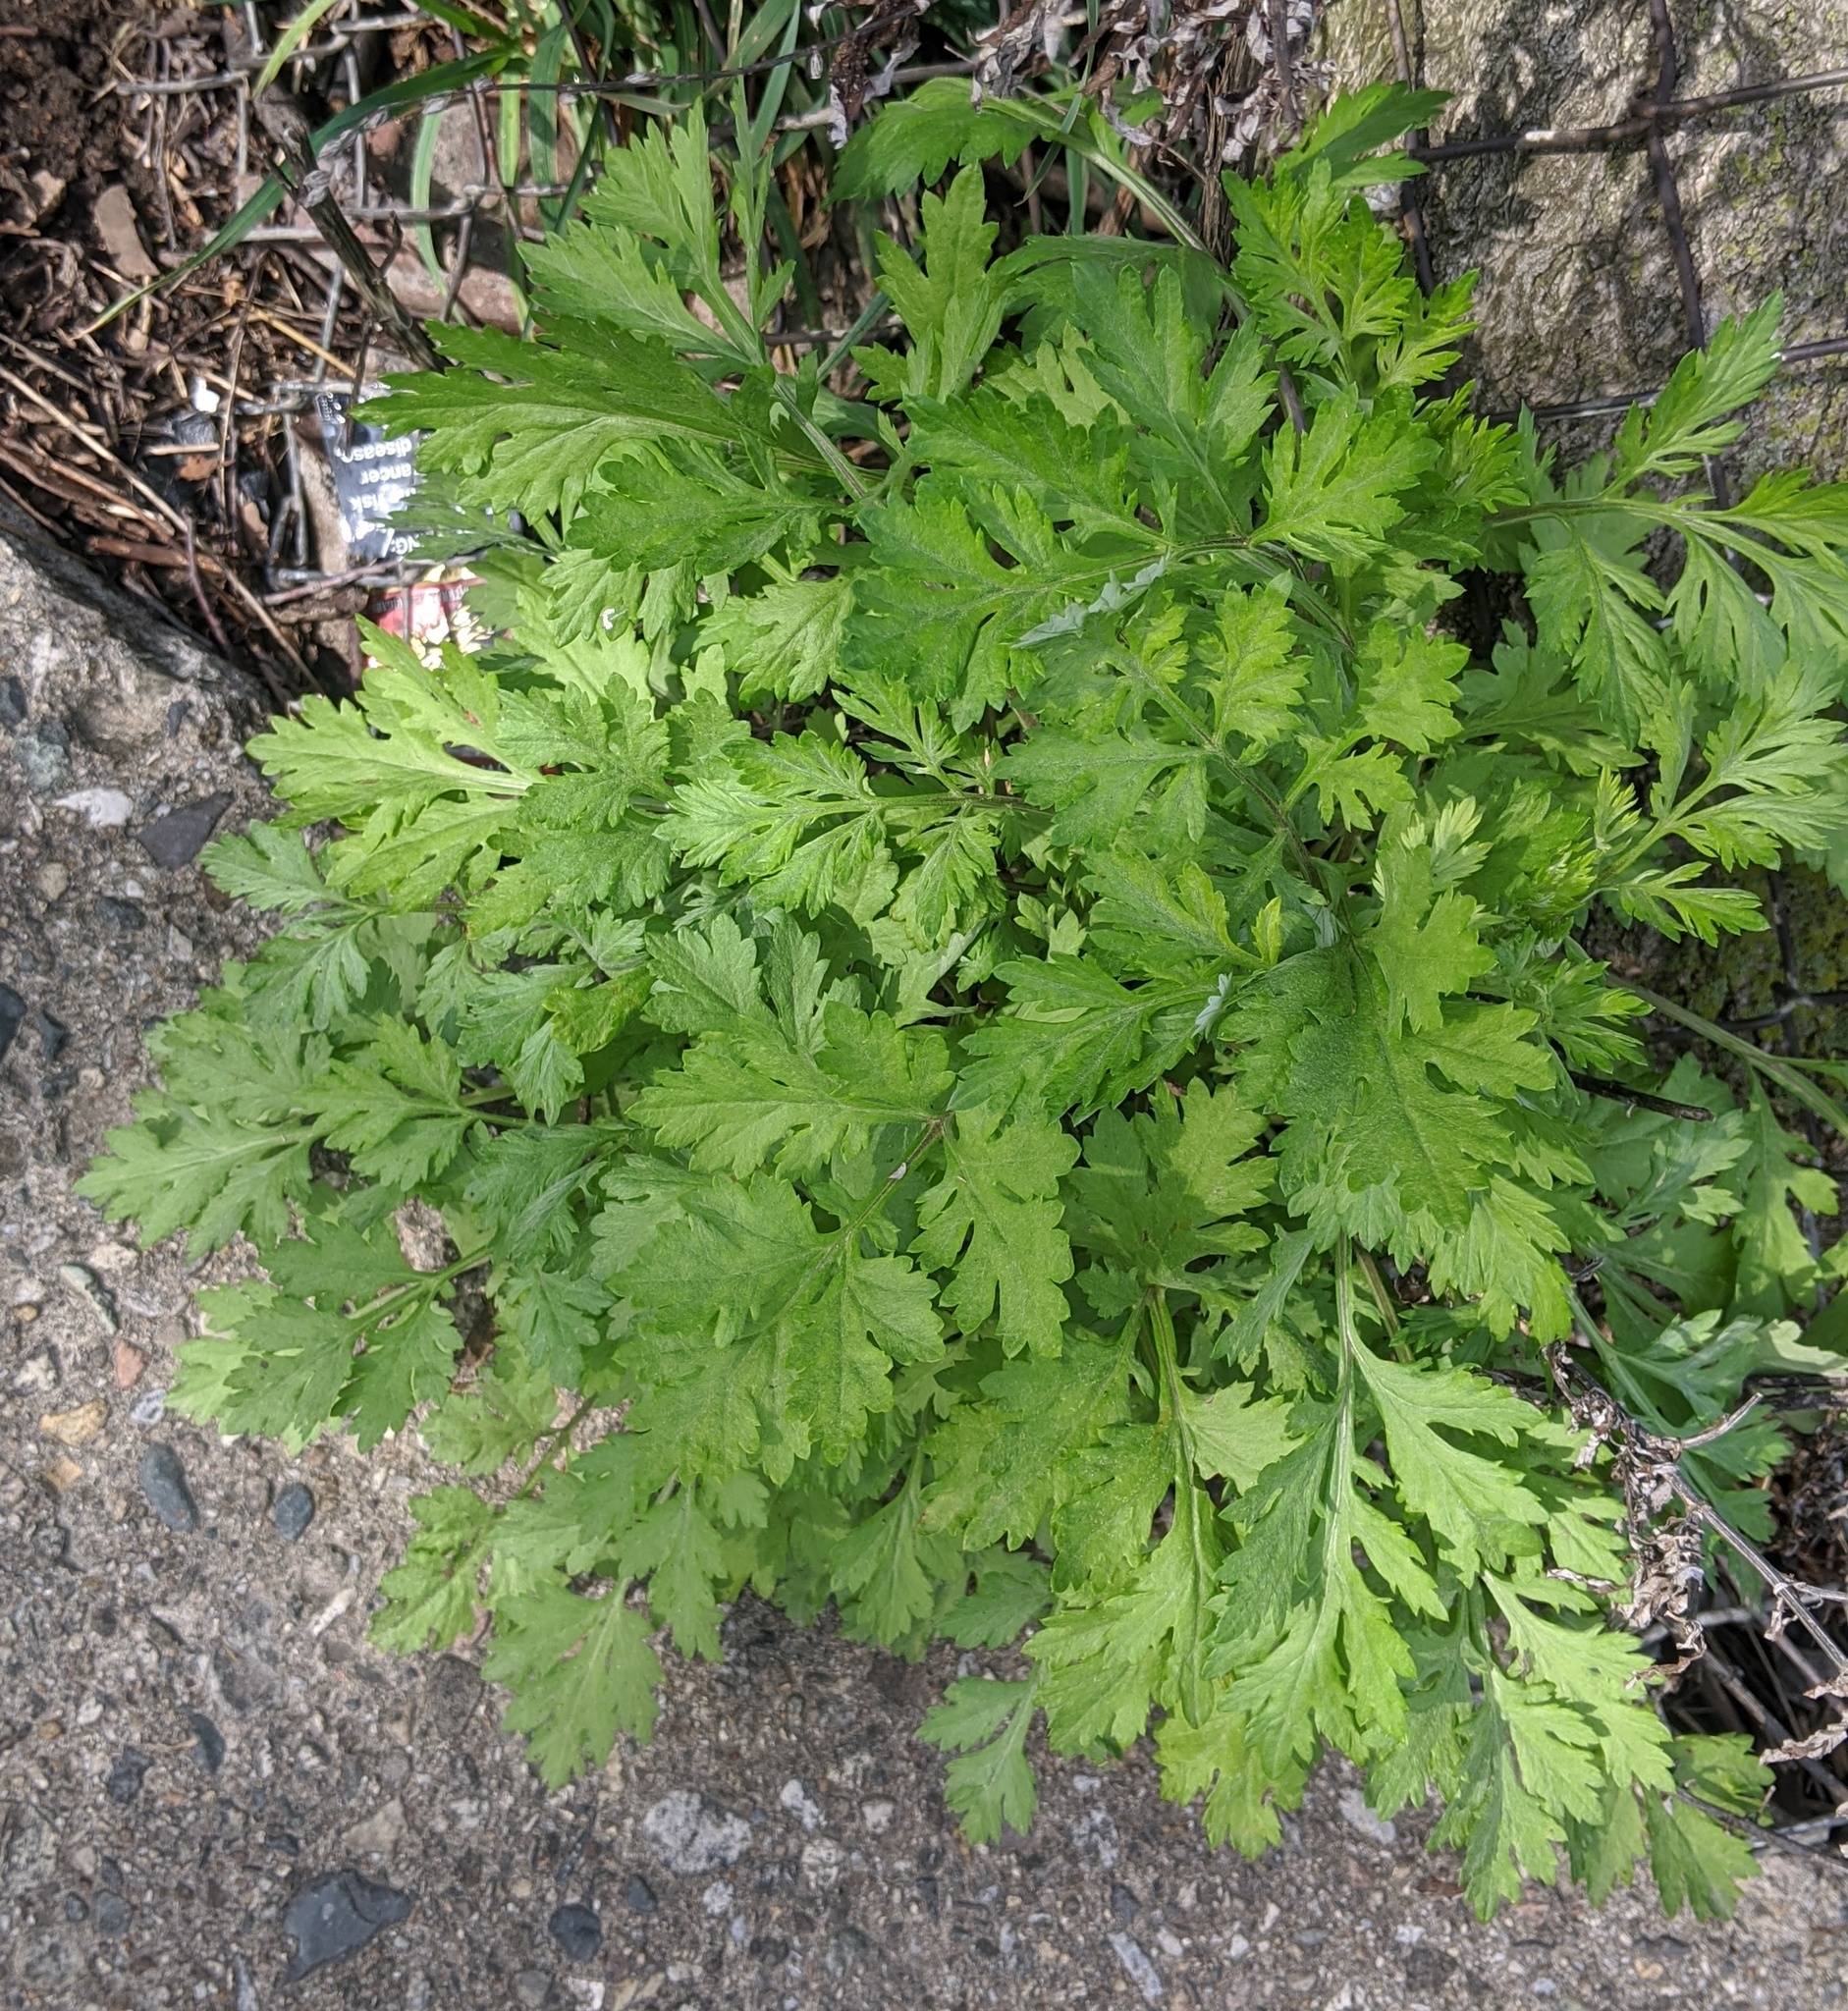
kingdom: Plantae
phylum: Tracheophyta
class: Magnoliopsida
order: Asterales
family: Asteraceae
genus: Artemisia
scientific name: Artemisia vulgaris
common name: Mugwort
